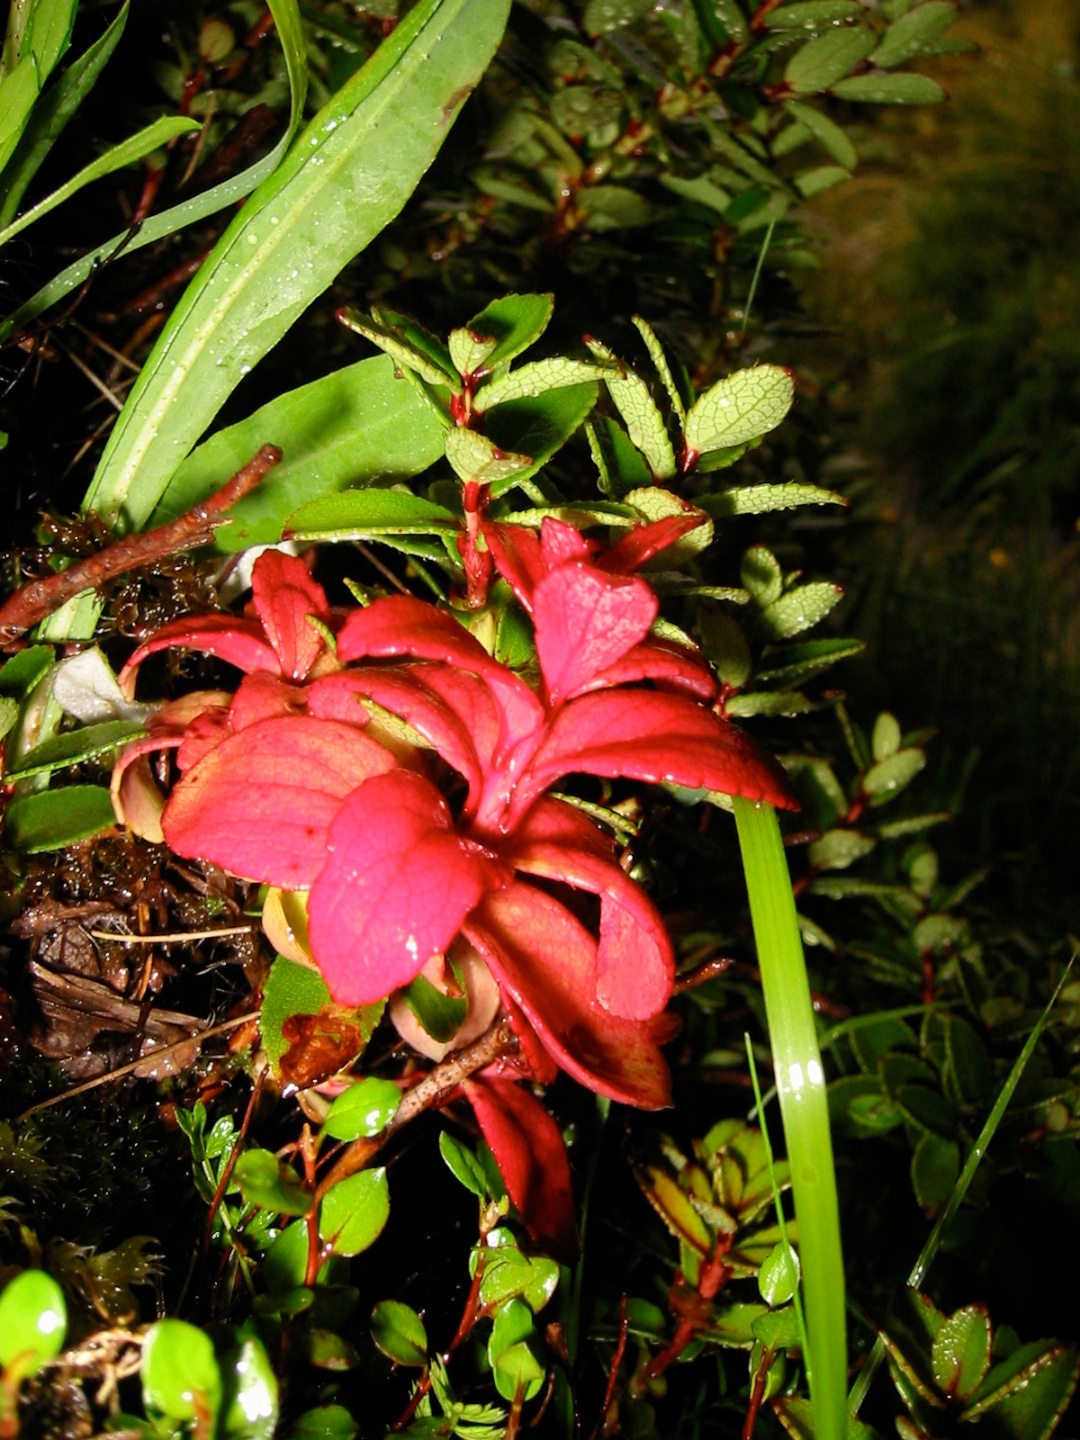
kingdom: Fungi
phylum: Basidiomycota
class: Exobasidiomycetes
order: Exobasidiales
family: Exobasidiaceae
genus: Exobasidium
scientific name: Exobasidium gaultheriae
